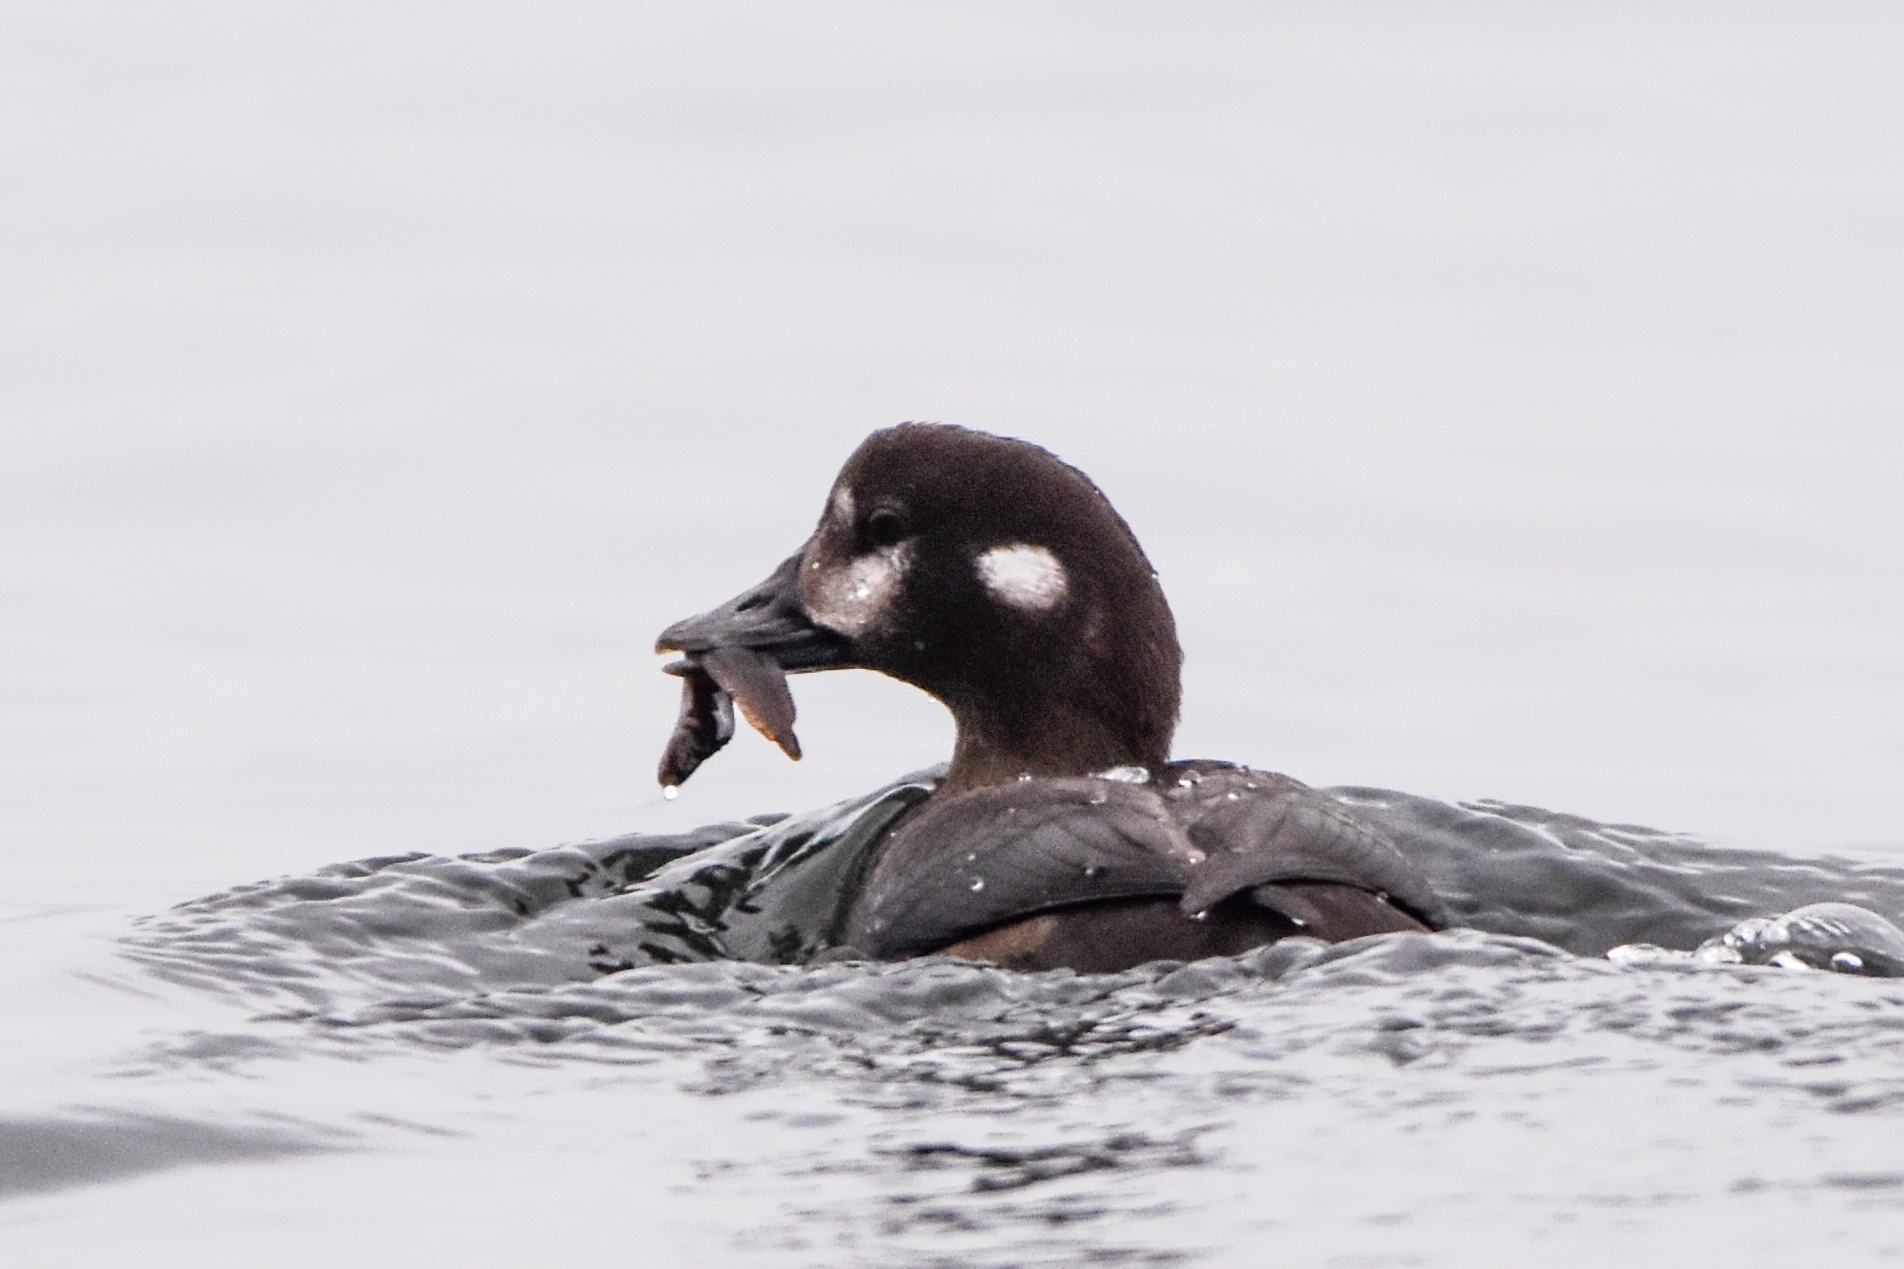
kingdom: Animalia
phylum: Chordata
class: Aves
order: Anseriformes
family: Anatidae
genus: Histrionicus
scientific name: Histrionicus histrionicus
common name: Harlequin duck
